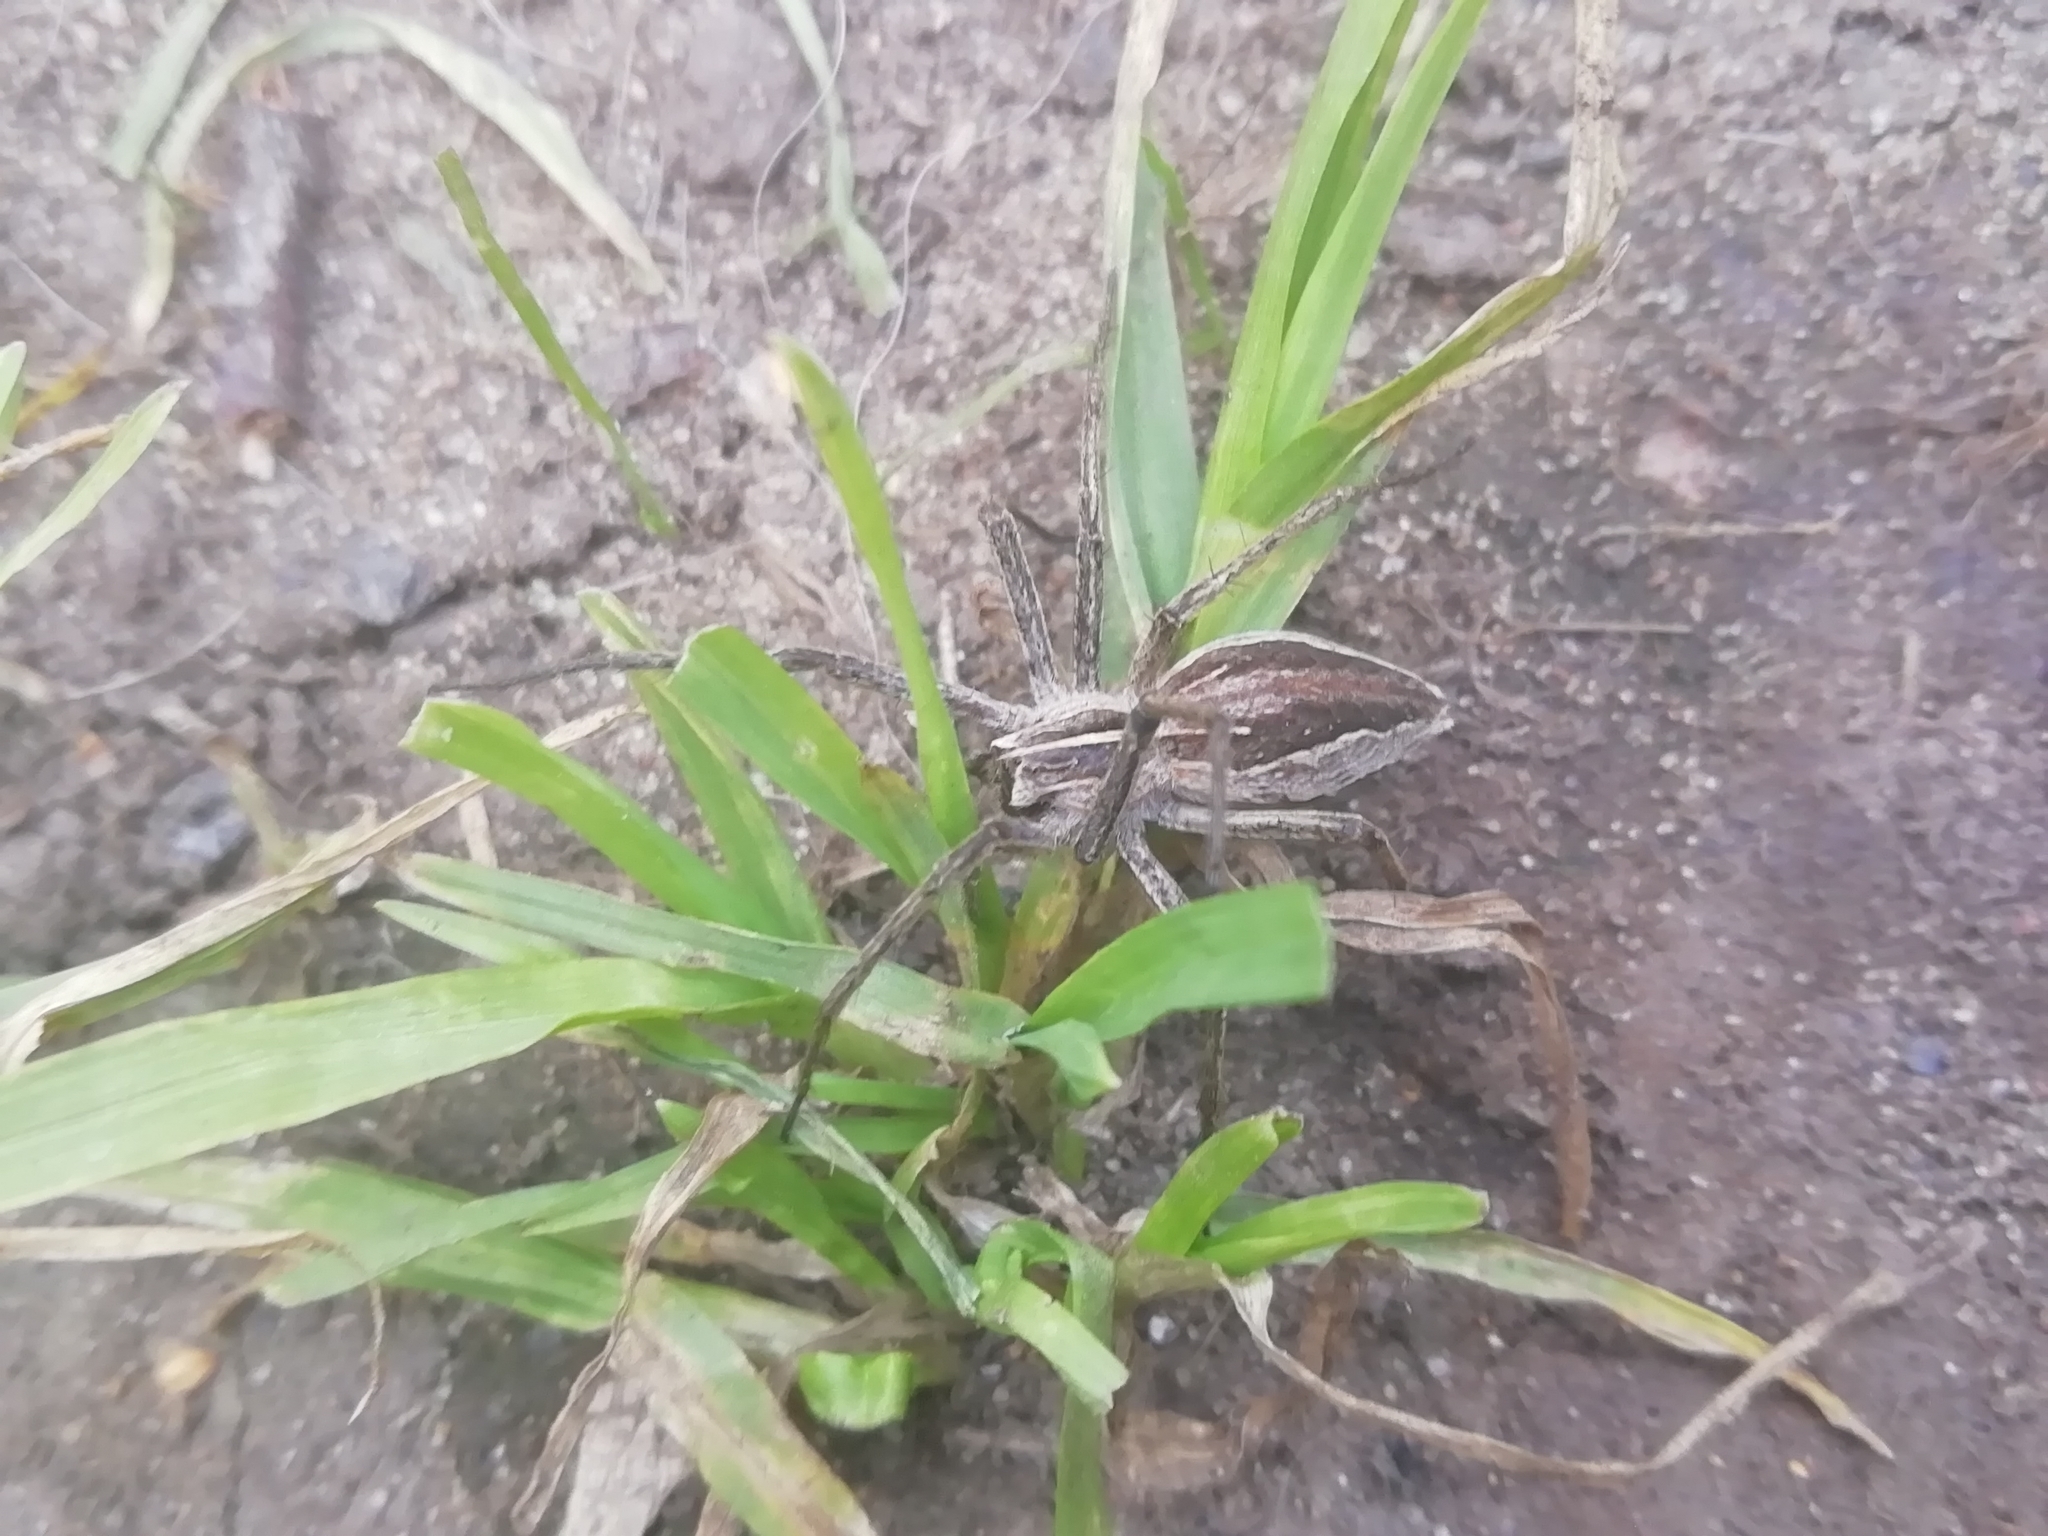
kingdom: Animalia
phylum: Arthropoda
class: Arachnida
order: Araneae
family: Pisauridae
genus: Pisaura
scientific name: Pisaura mirabilis
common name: Tent spider
